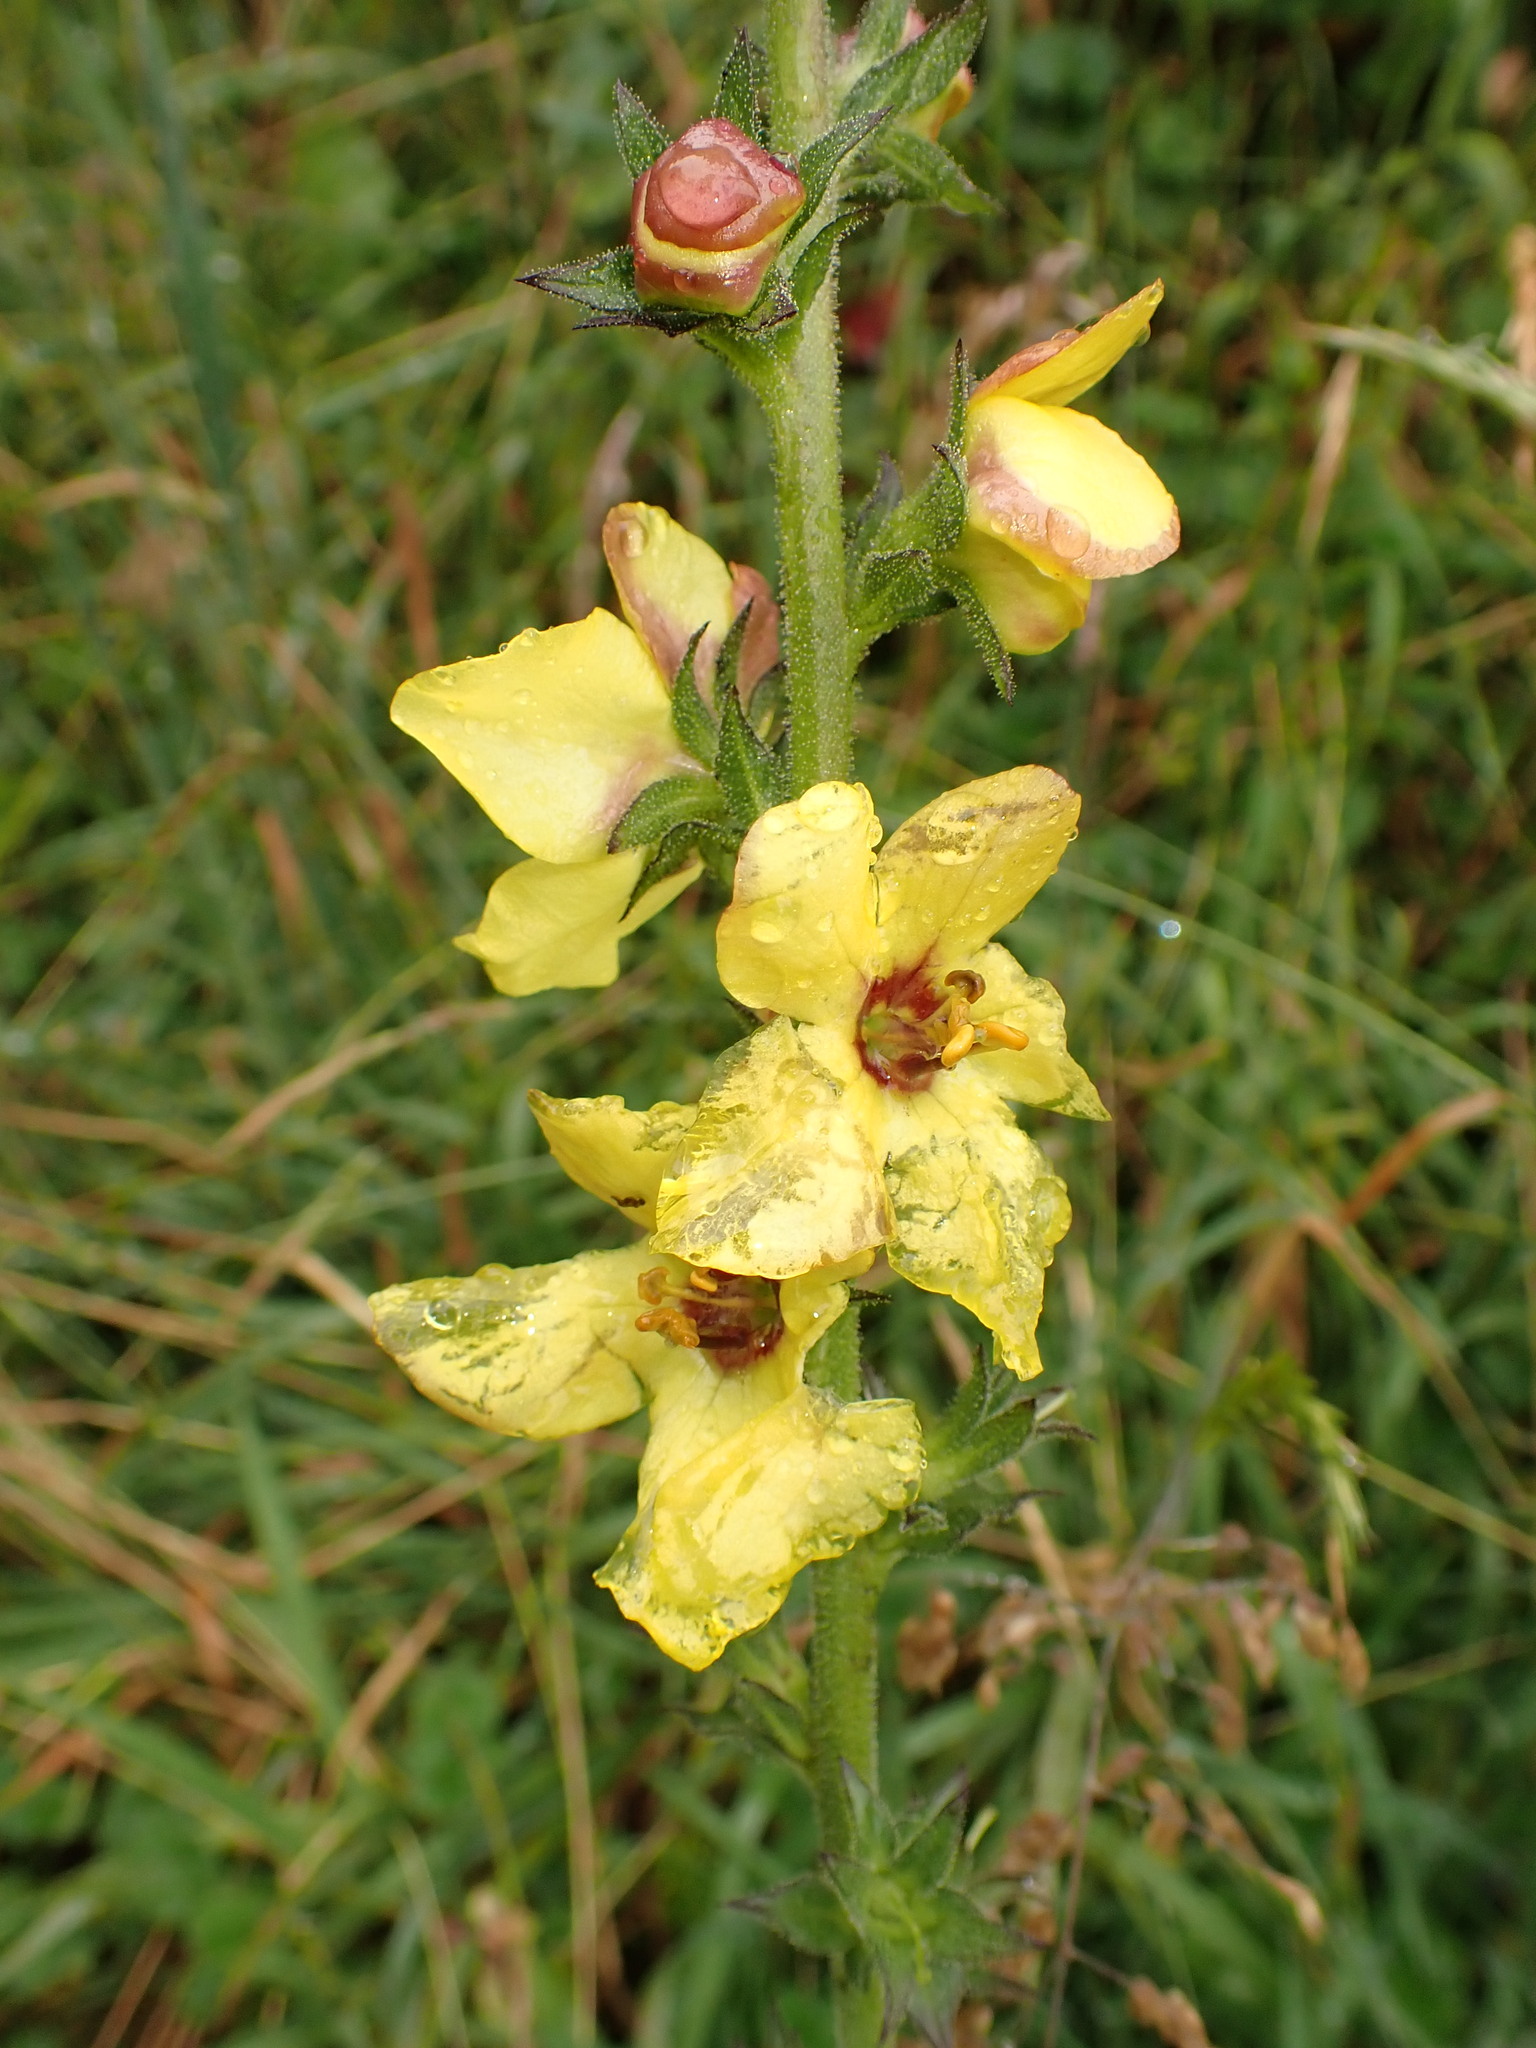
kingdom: Plantae
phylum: Tracheophyta
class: Magnoliopsida
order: Lamiales
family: Scrophulariaceae
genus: Verbascum
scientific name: Verbascum virgatum
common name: Twiggy mullein
